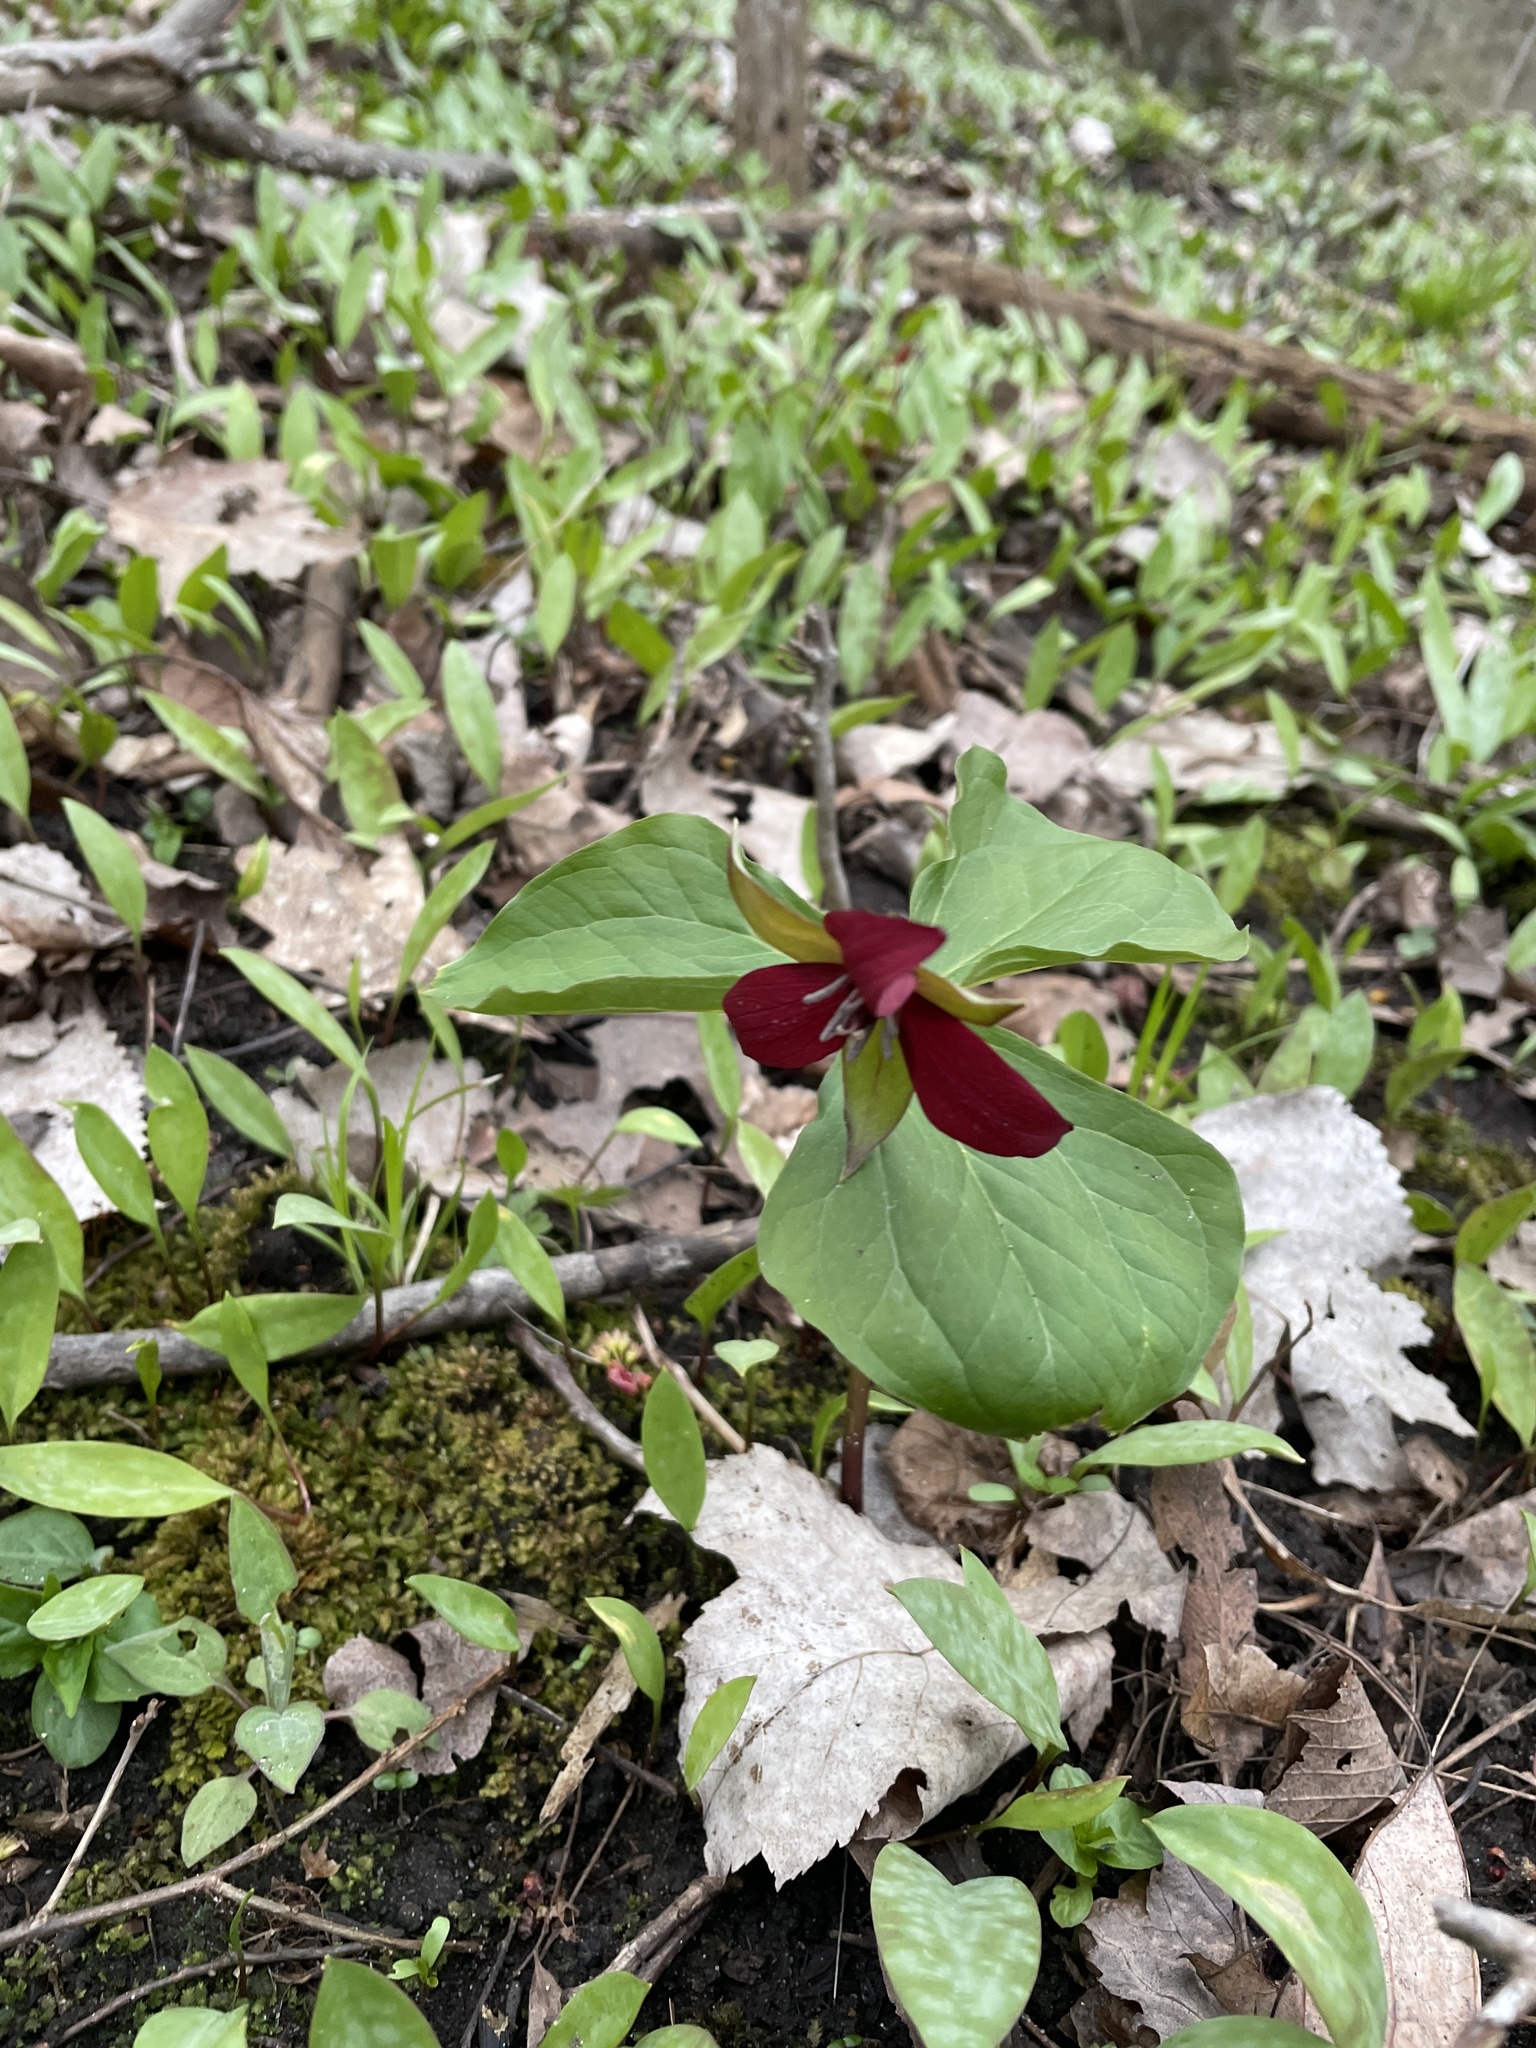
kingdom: Plantae
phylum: Tracheophyta
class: Liliopsida
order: Liliales
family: Melanthiaceae
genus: Trillium
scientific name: Trillium erectum
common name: Purple trillium
